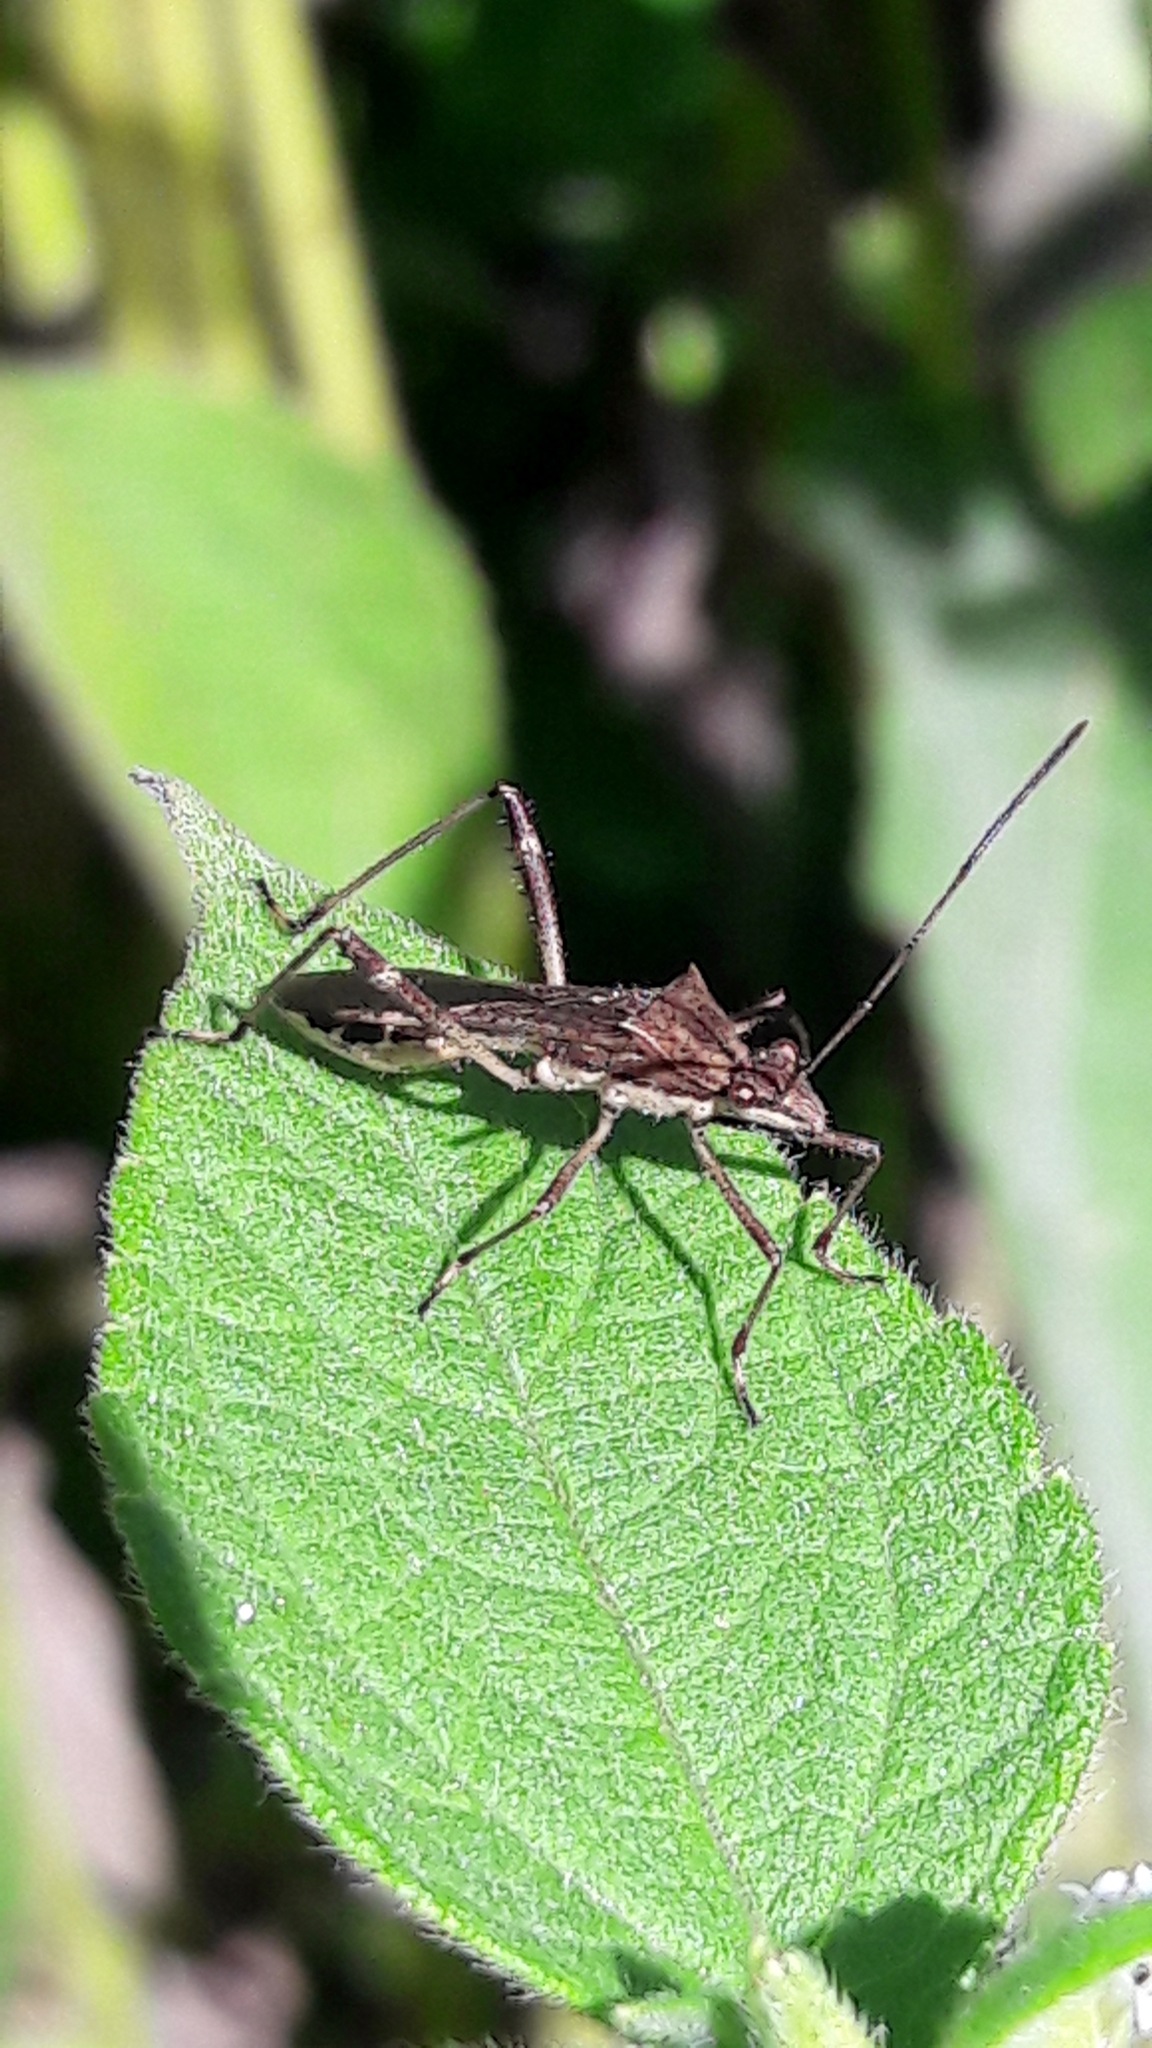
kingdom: Animalia
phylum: Arthropoda
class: Insecta
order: Hemiptera
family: Alydidae
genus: Neomegalotomus
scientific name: Neomegalotomus parvus
